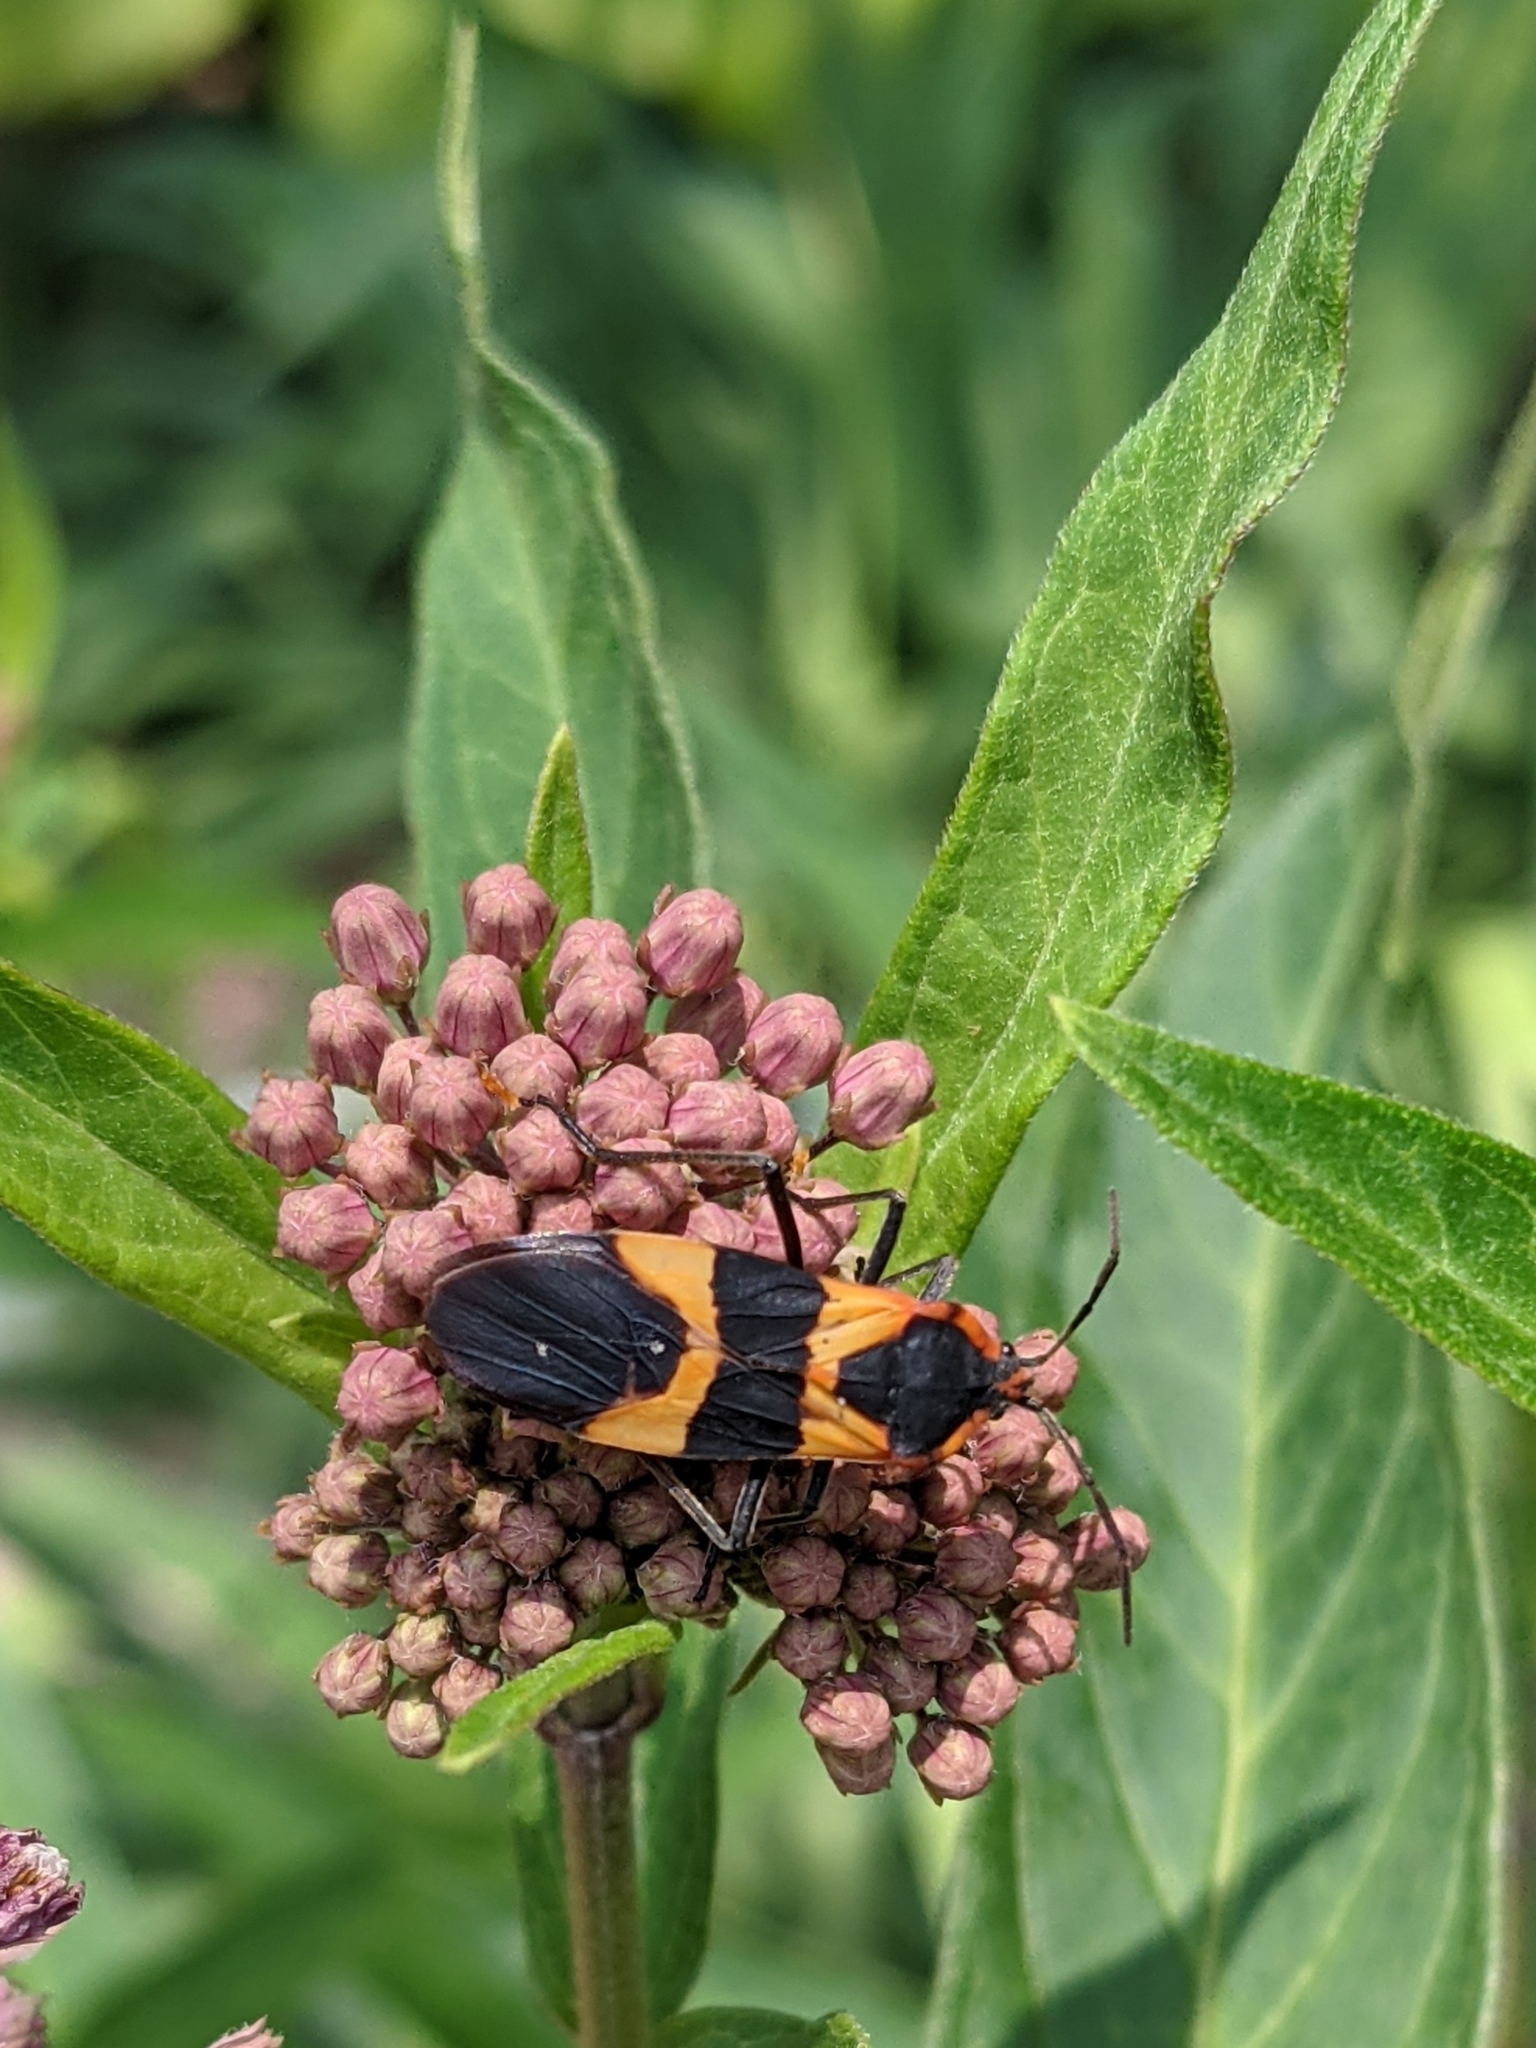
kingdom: Animalia
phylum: Arthropoda
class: Insecta
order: Hemiptera
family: Lygaeidae
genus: Oncopeltus
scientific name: Oncopeltus fasciatus
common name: Large milkweed bug
